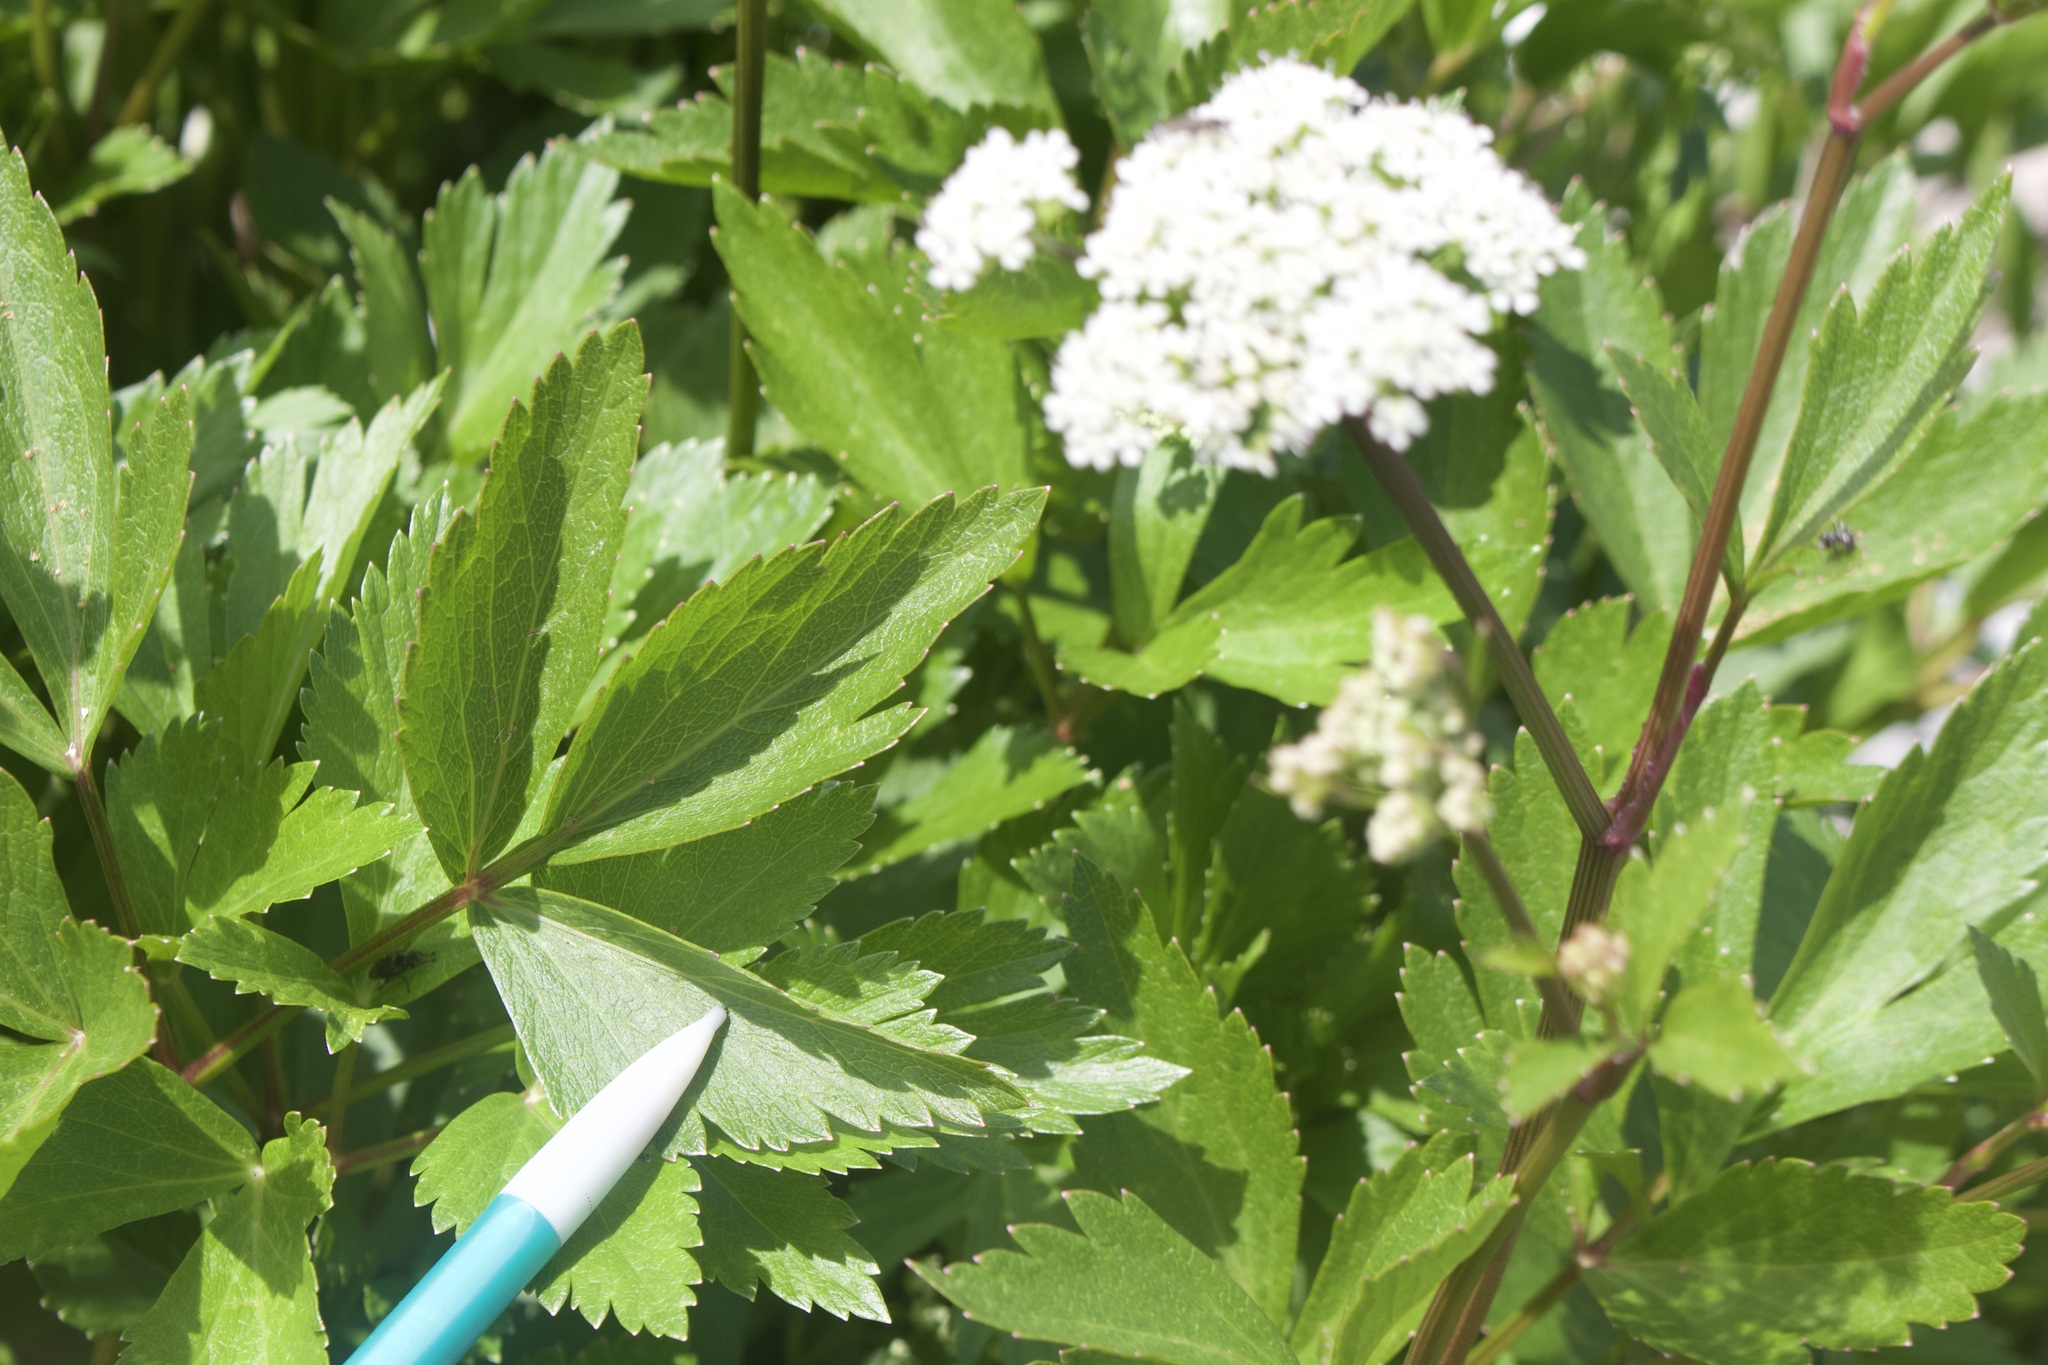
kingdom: Plantae
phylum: Tracheophyta
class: Magnoliopsida
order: Apiales
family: Apiaceae
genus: Ligusticum
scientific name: Ligusticum scothicum
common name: Beach lovage
